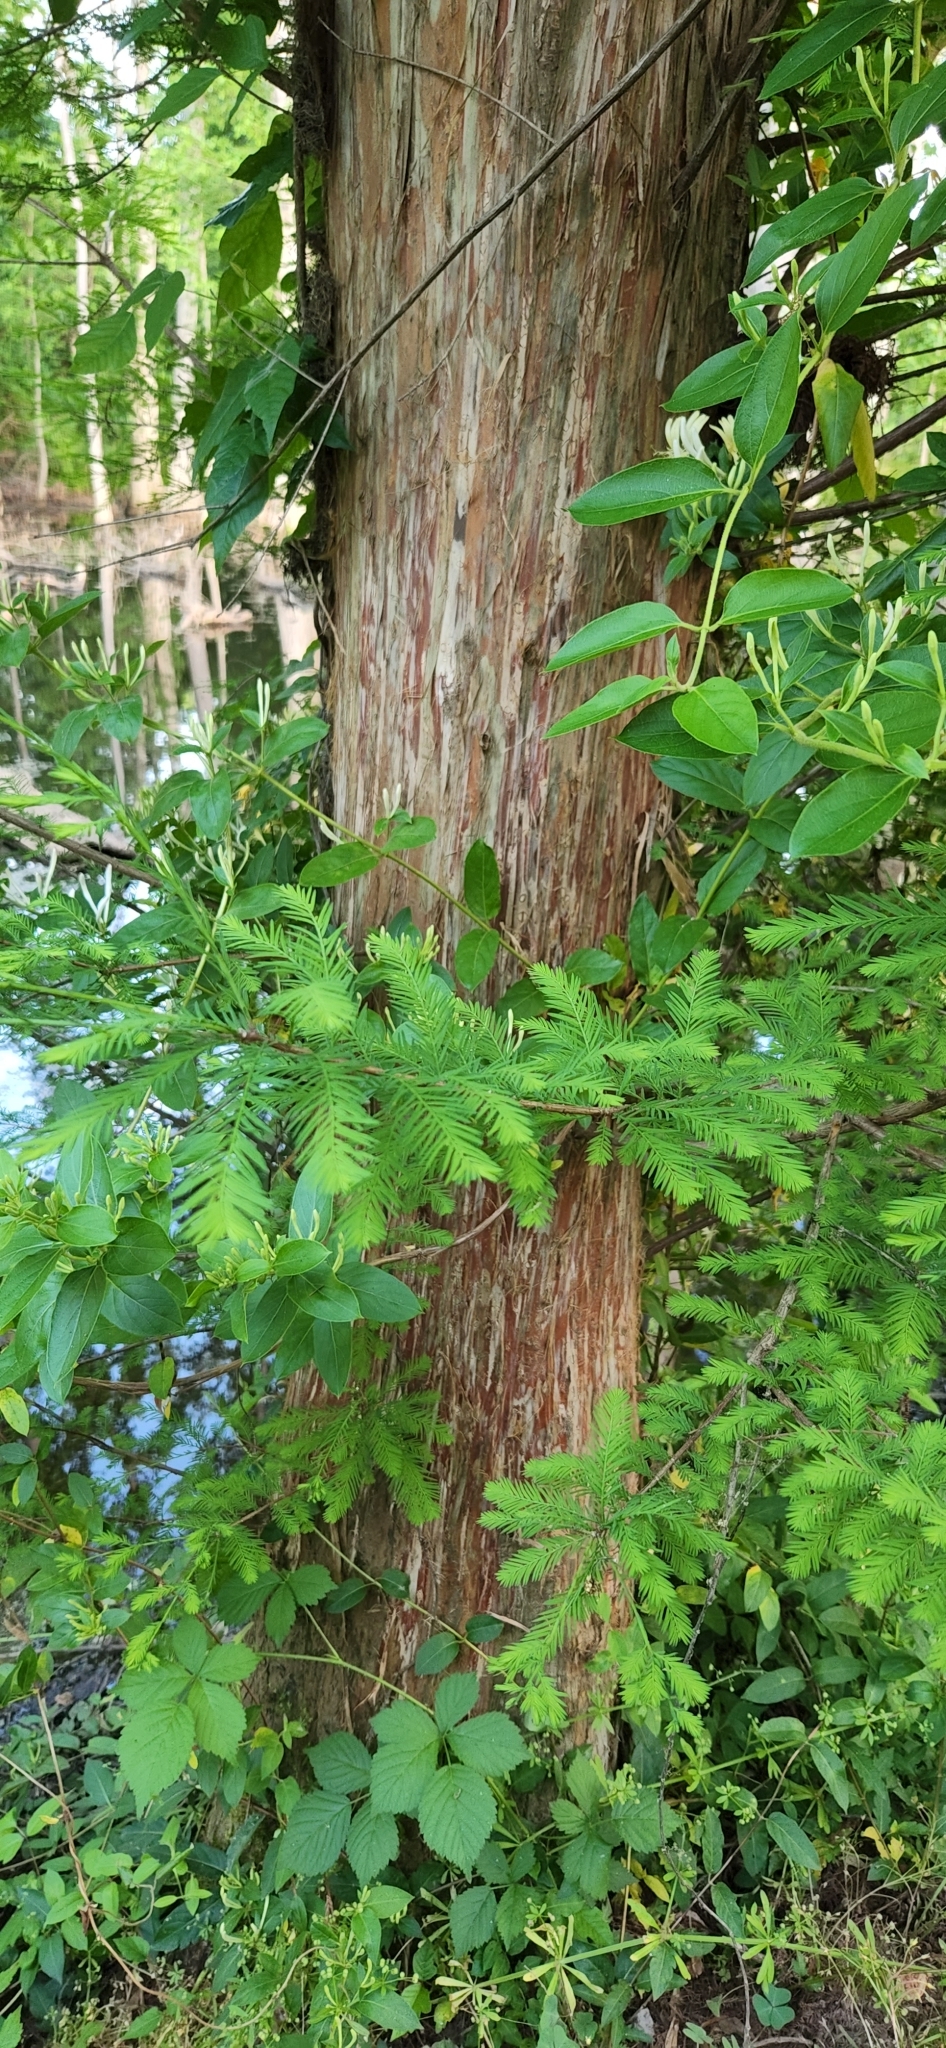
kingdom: Plantae
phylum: Tracheophyta
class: Pinopsida
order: Pinales
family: Cupressaceae
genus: Taxodium
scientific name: Taxodium distichum
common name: Bald cypress
